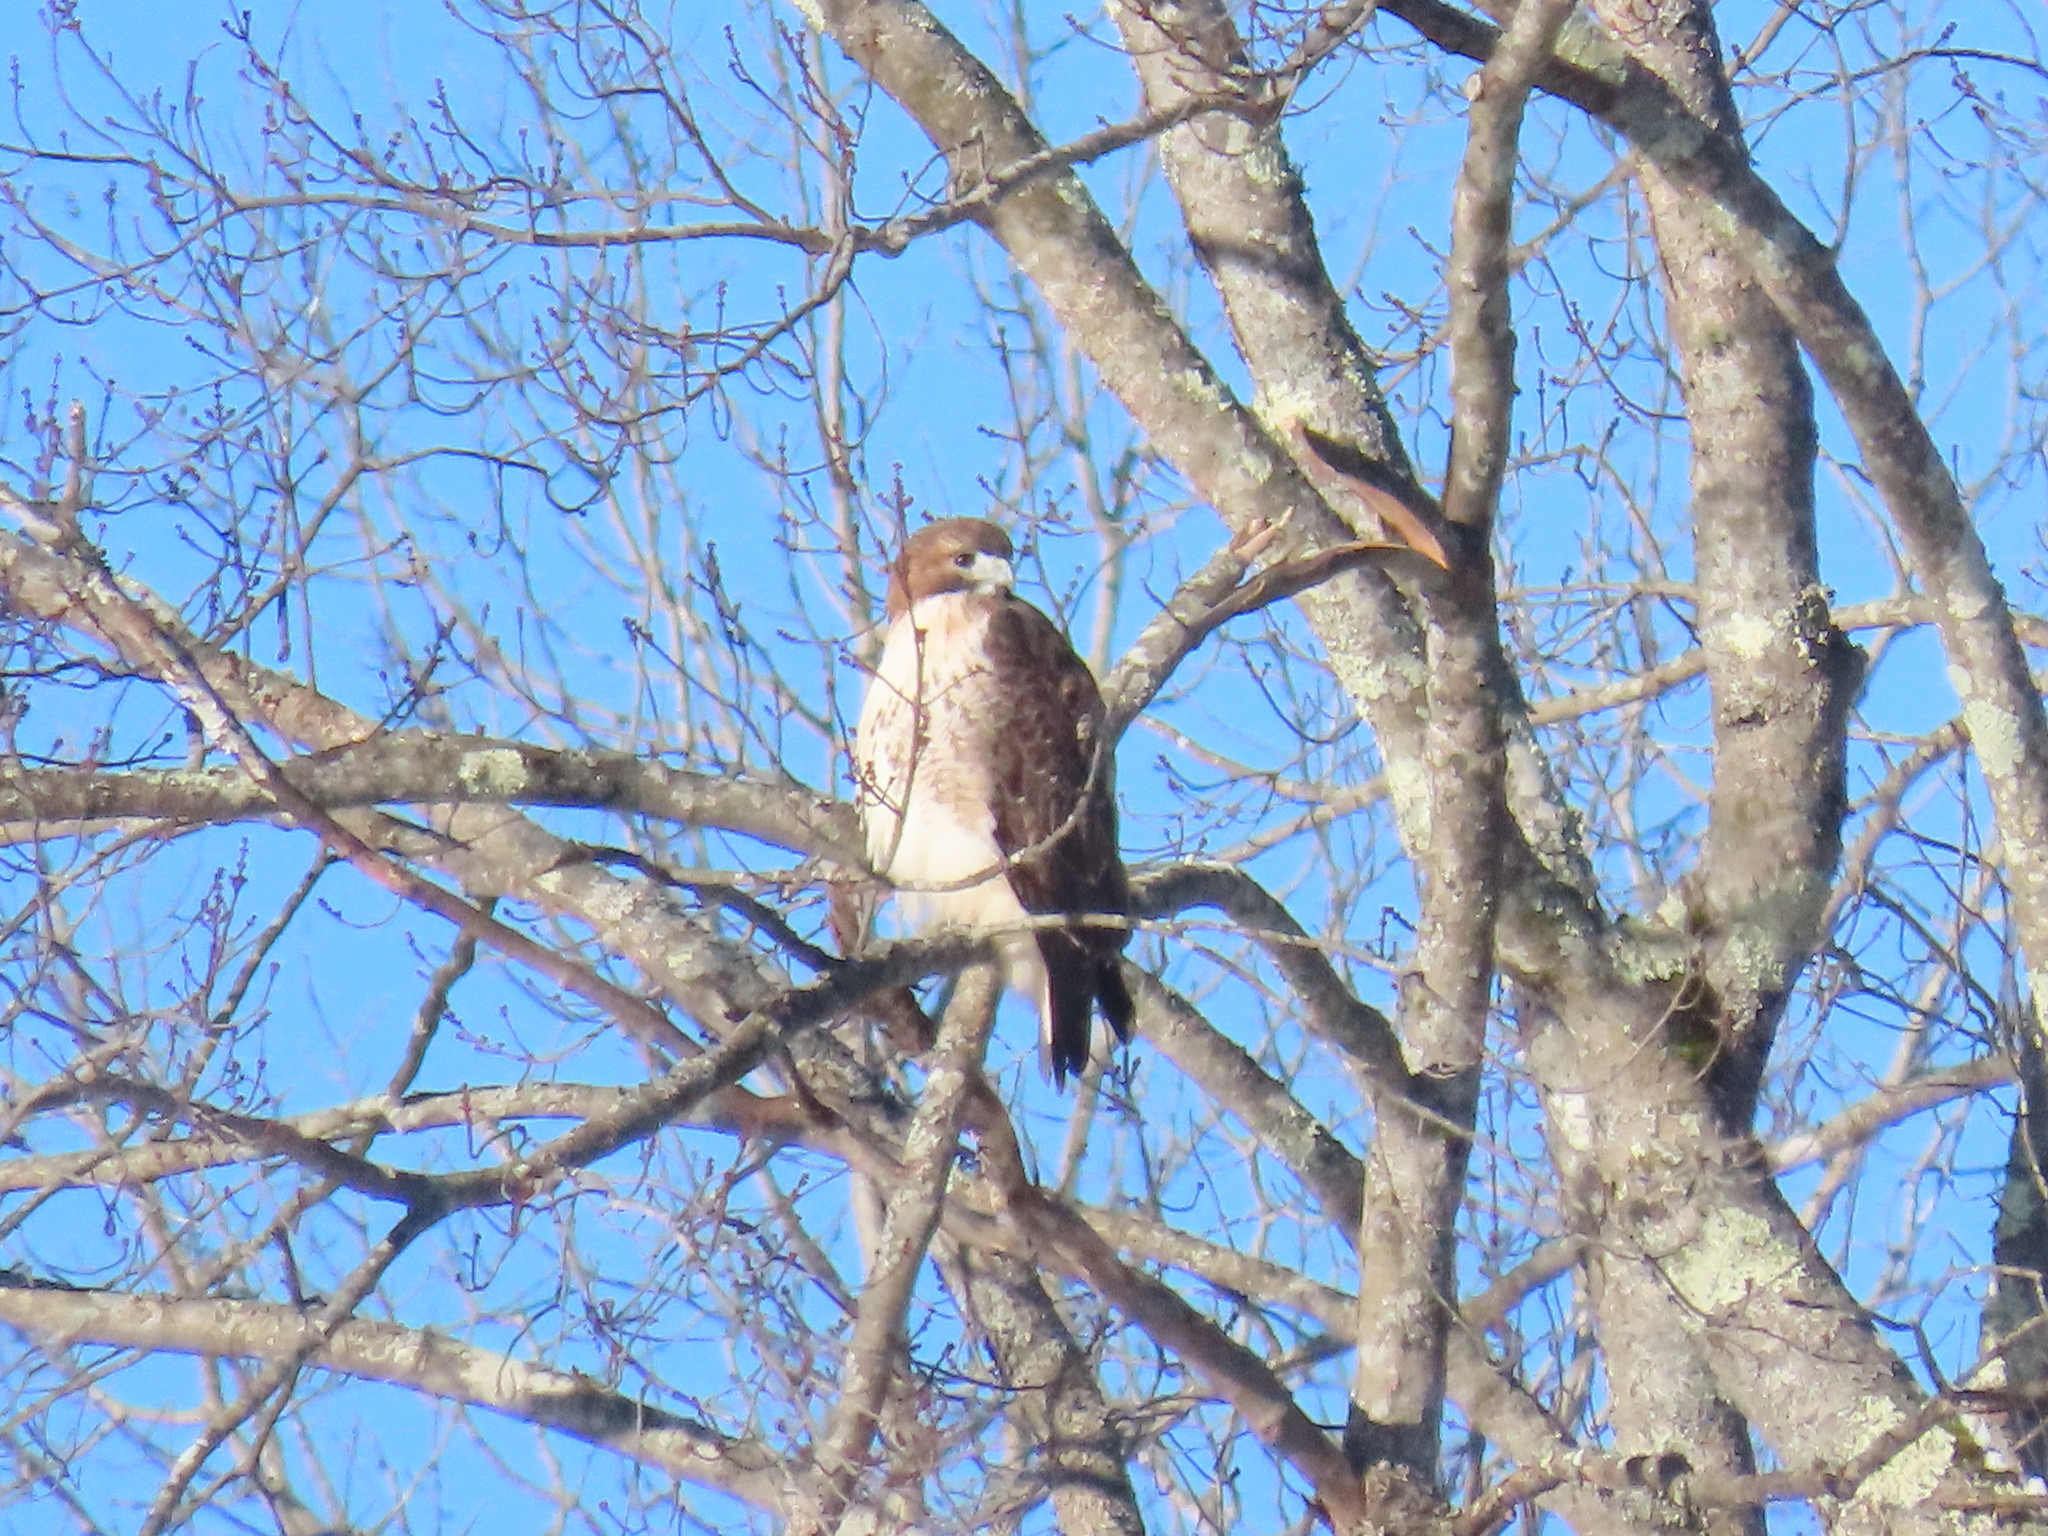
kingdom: Animalia
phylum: Chordata
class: Aves
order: Accipitriformes
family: Accipitridae
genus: Buteo
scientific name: Buteo jamaicensis
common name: Red-tailed hawk
